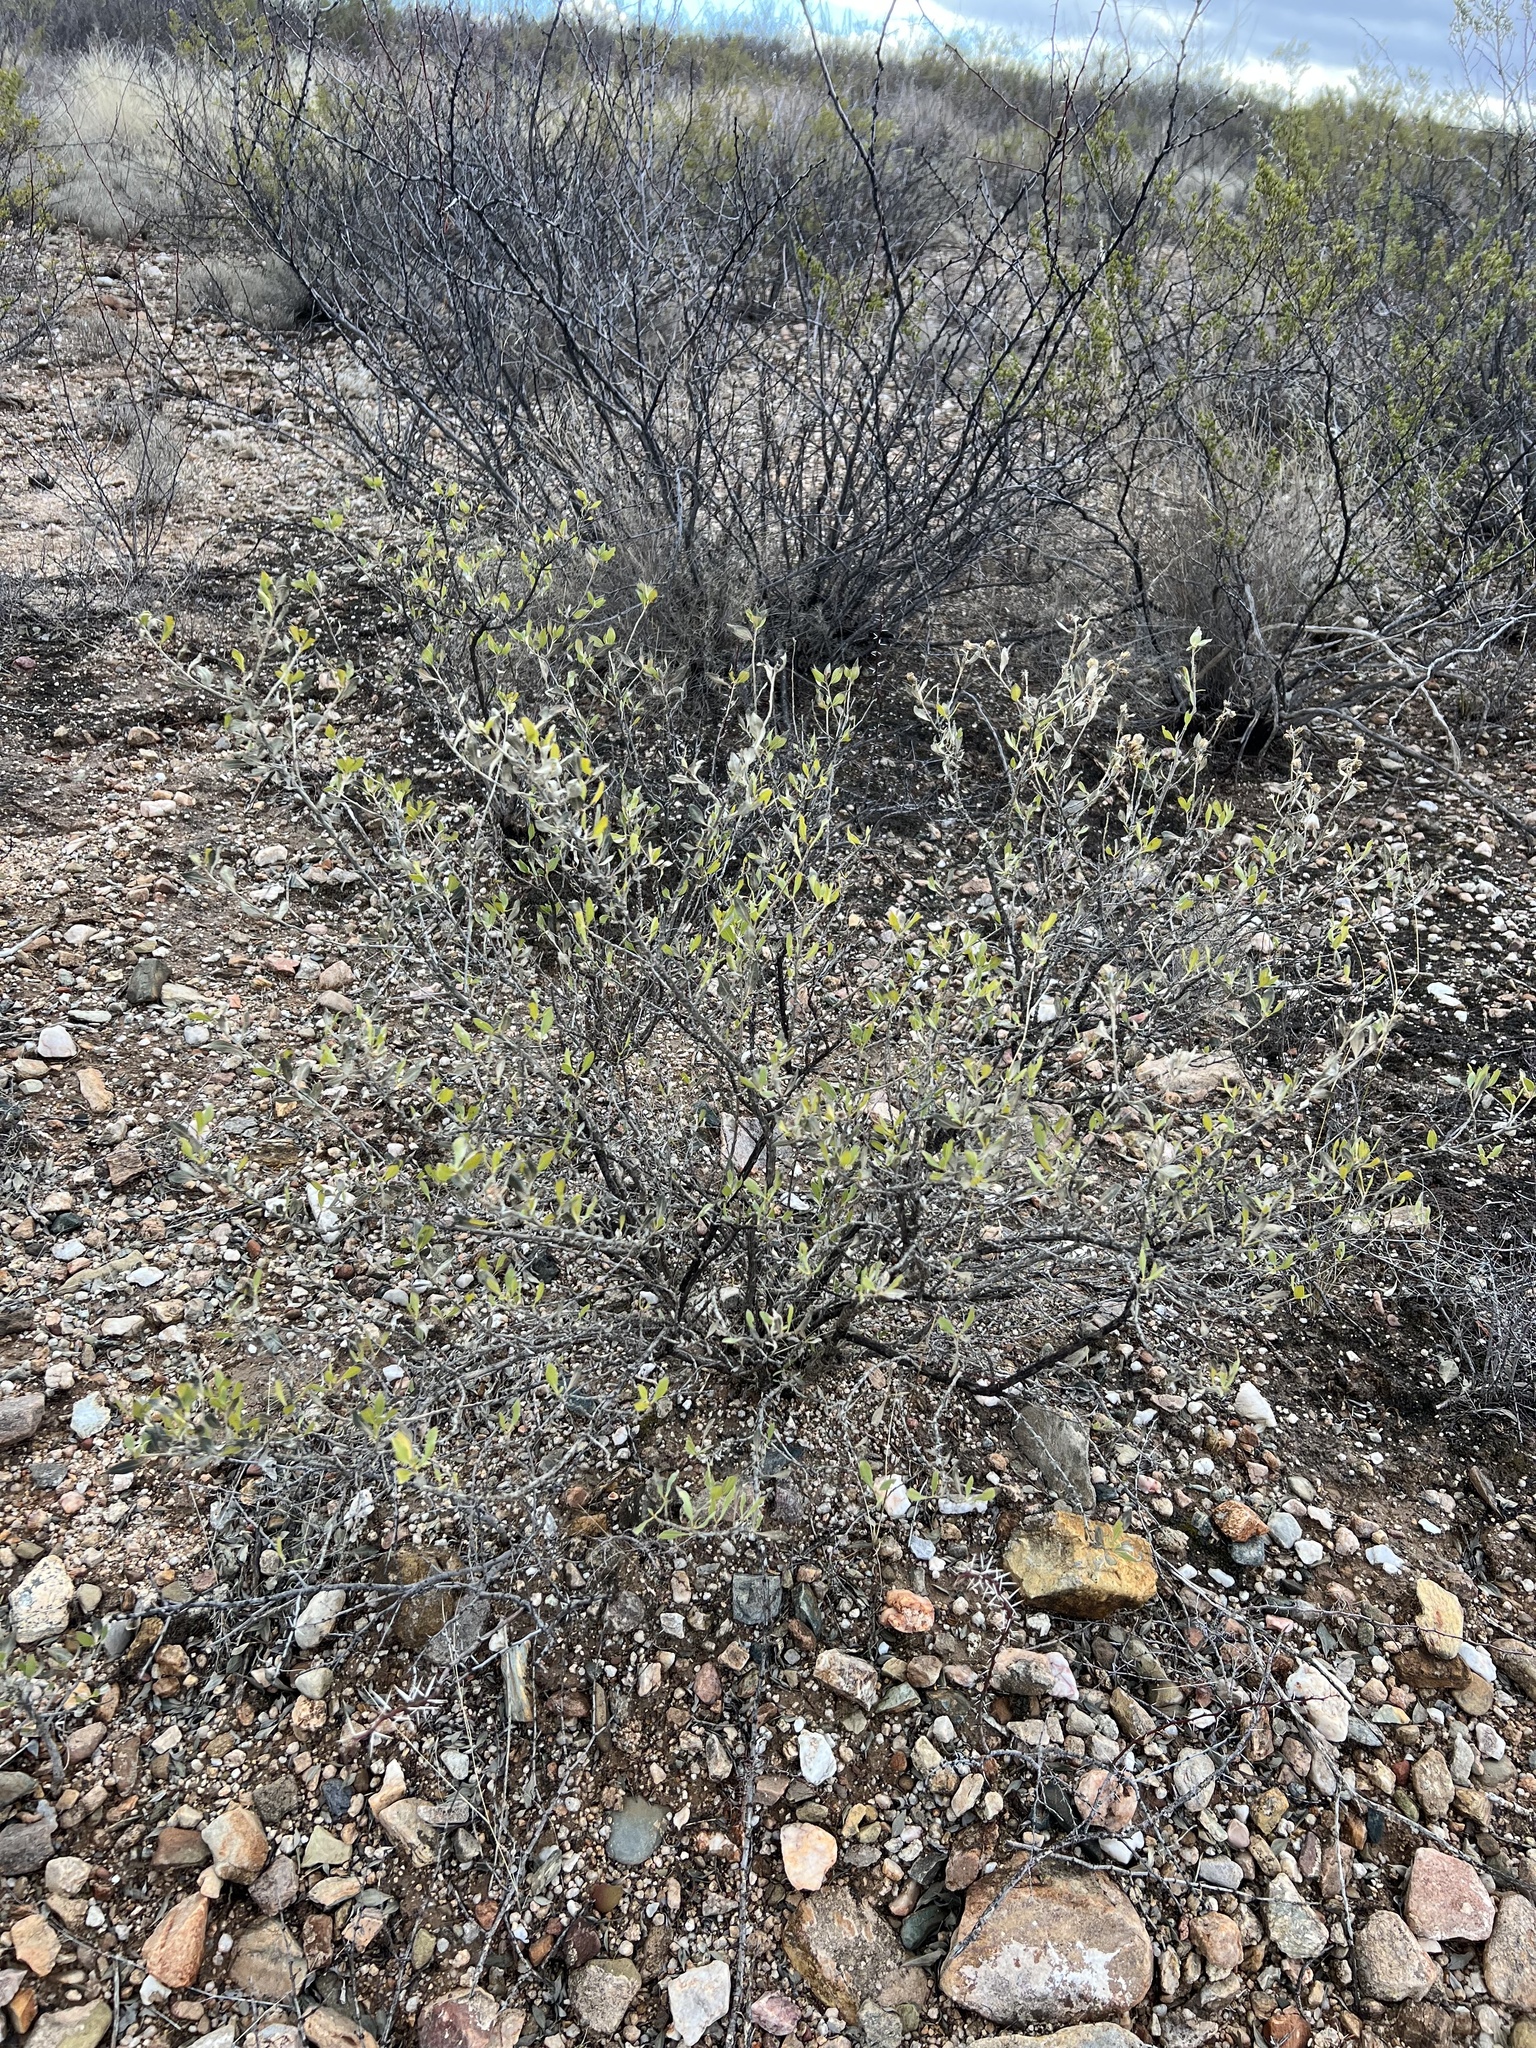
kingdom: Plantae
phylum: Tracheophyta
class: Magnoliopsida
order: Asterales
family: Asteraceae
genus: Flourensia
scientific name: Flourensia cernua
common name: Varnishbush
